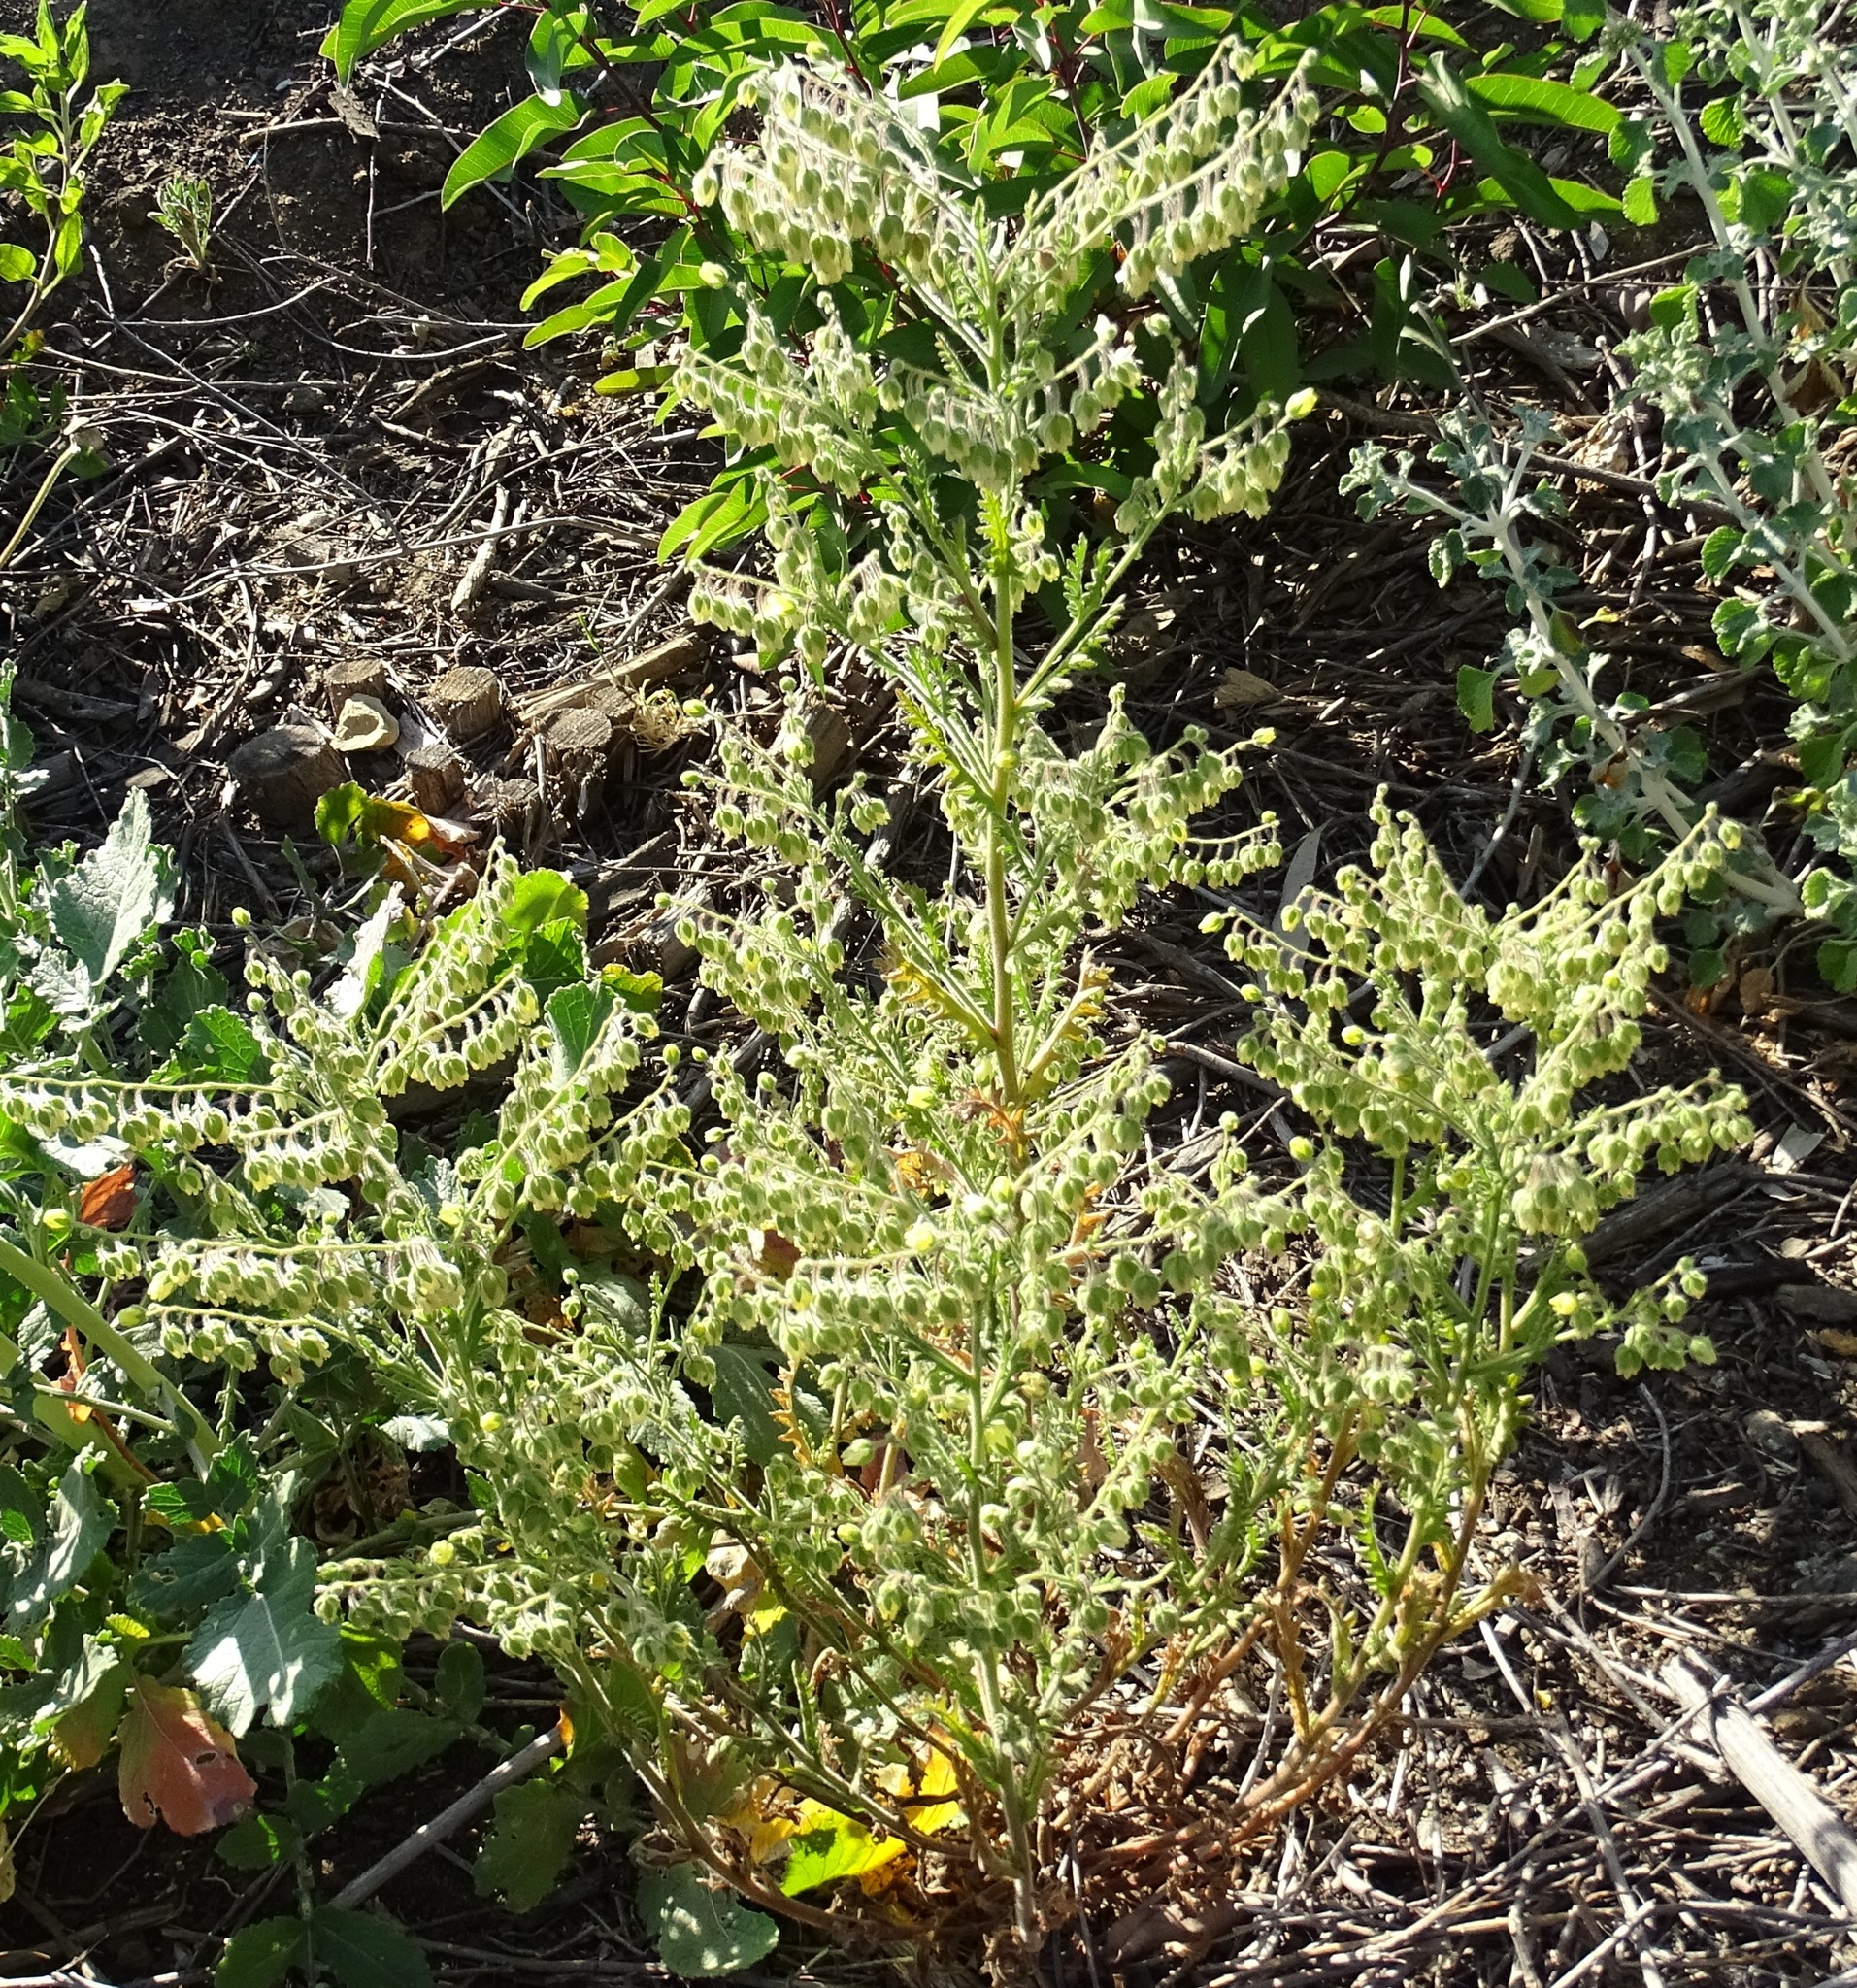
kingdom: Plantae
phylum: Tracheophyta
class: Magnoliopsida
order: Boraginales
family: Hydrophyllaceae
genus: Emmenanthe
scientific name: Emmenanthe penduliflora
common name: Whispering-bells
